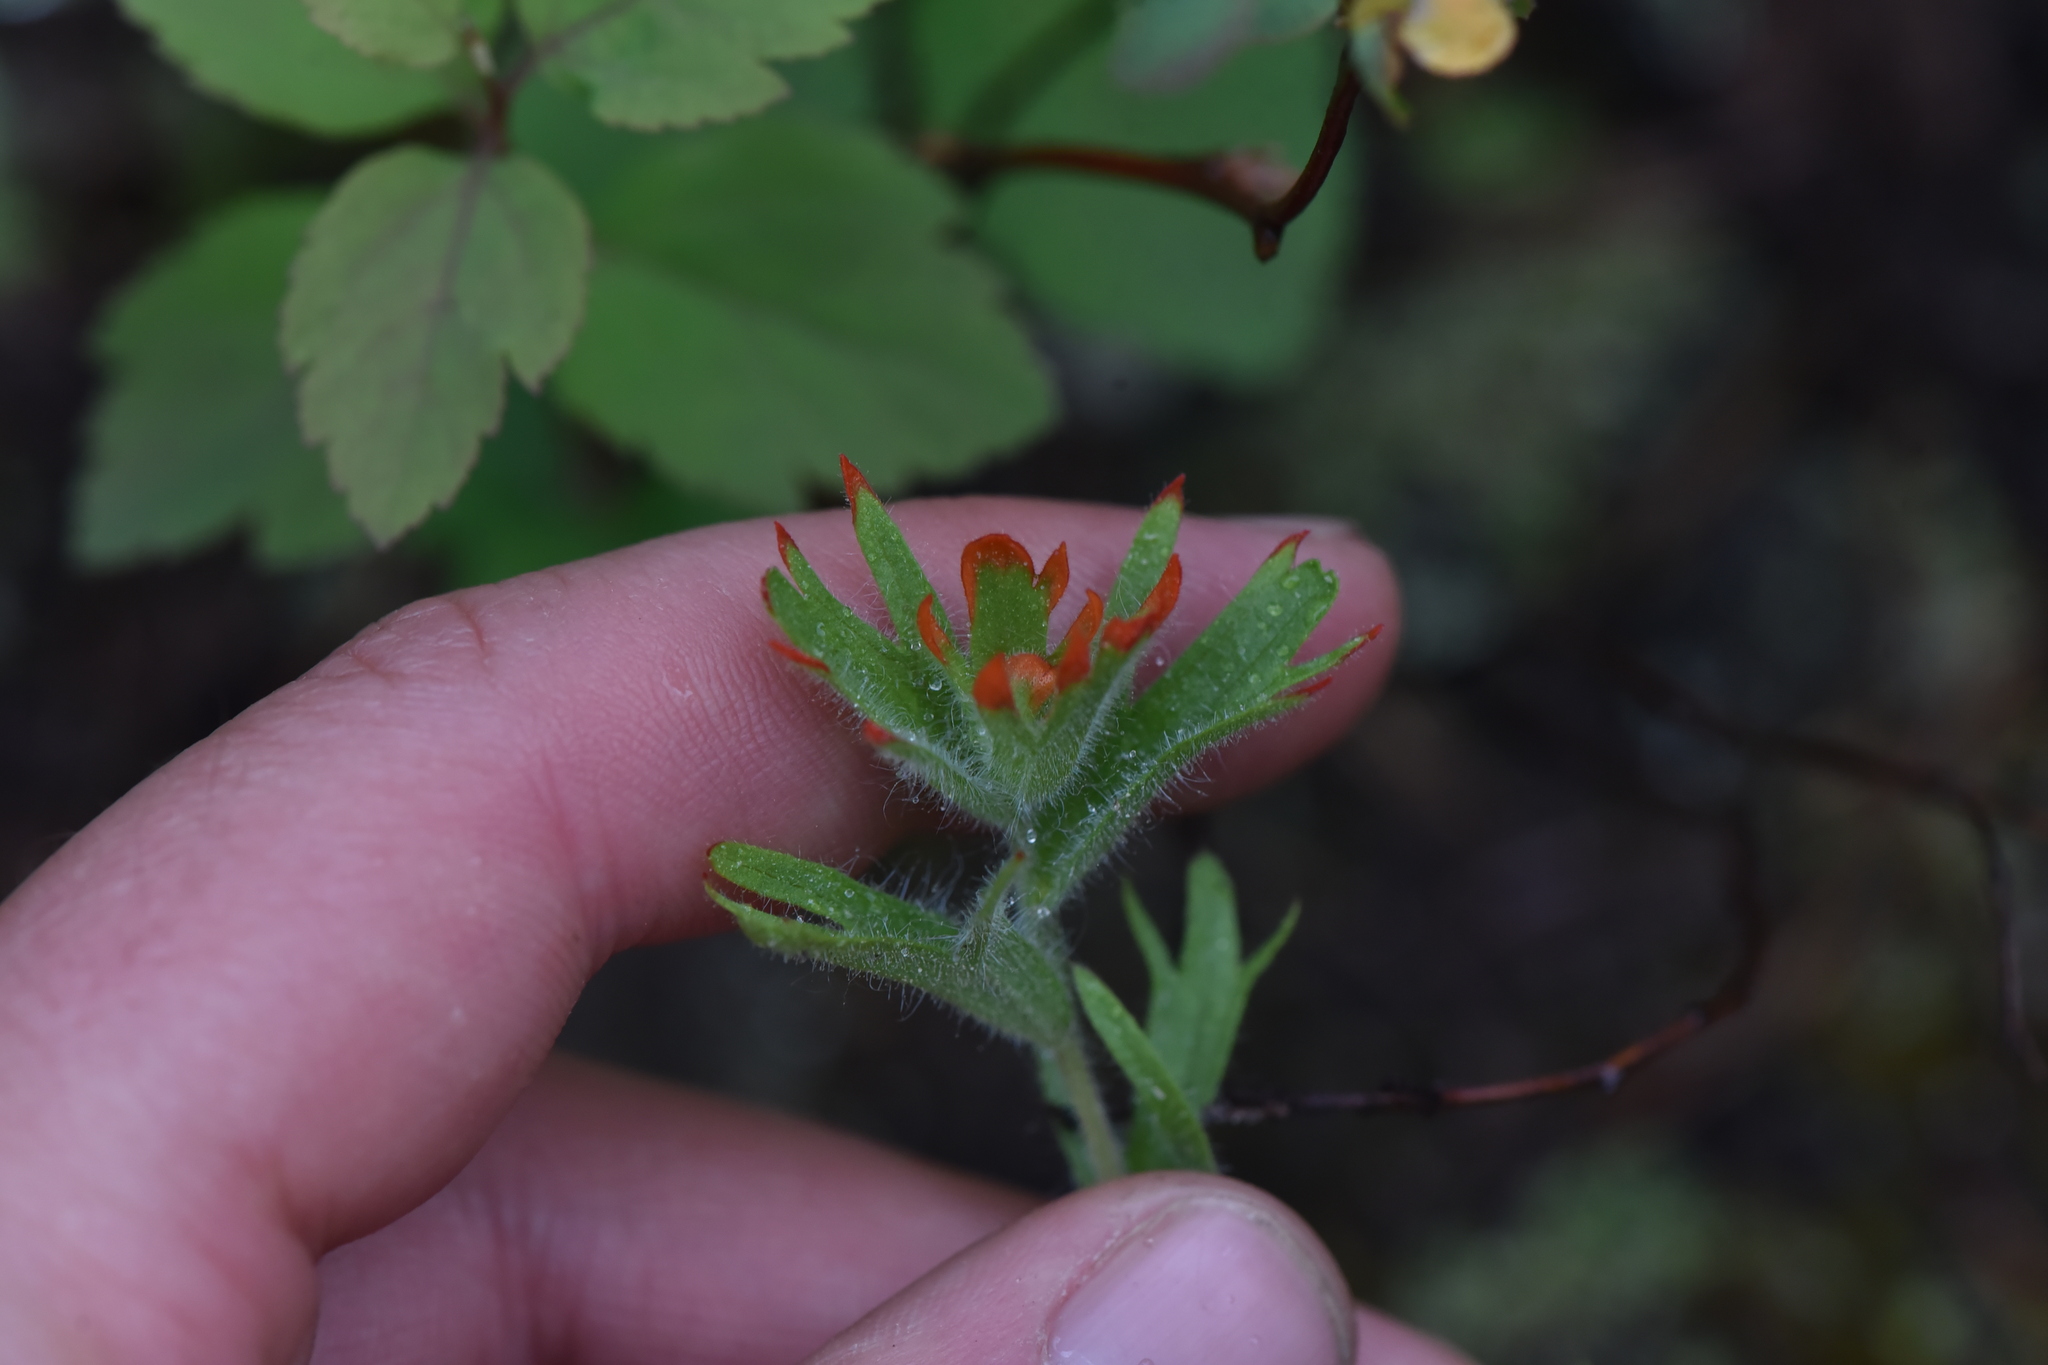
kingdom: Plantae
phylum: Tracheophyta
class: Magnoliopsida
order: Lamiales
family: Orobanchaceae
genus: Castilleja
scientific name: Castilleja hispida
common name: Bristly paintbrush
